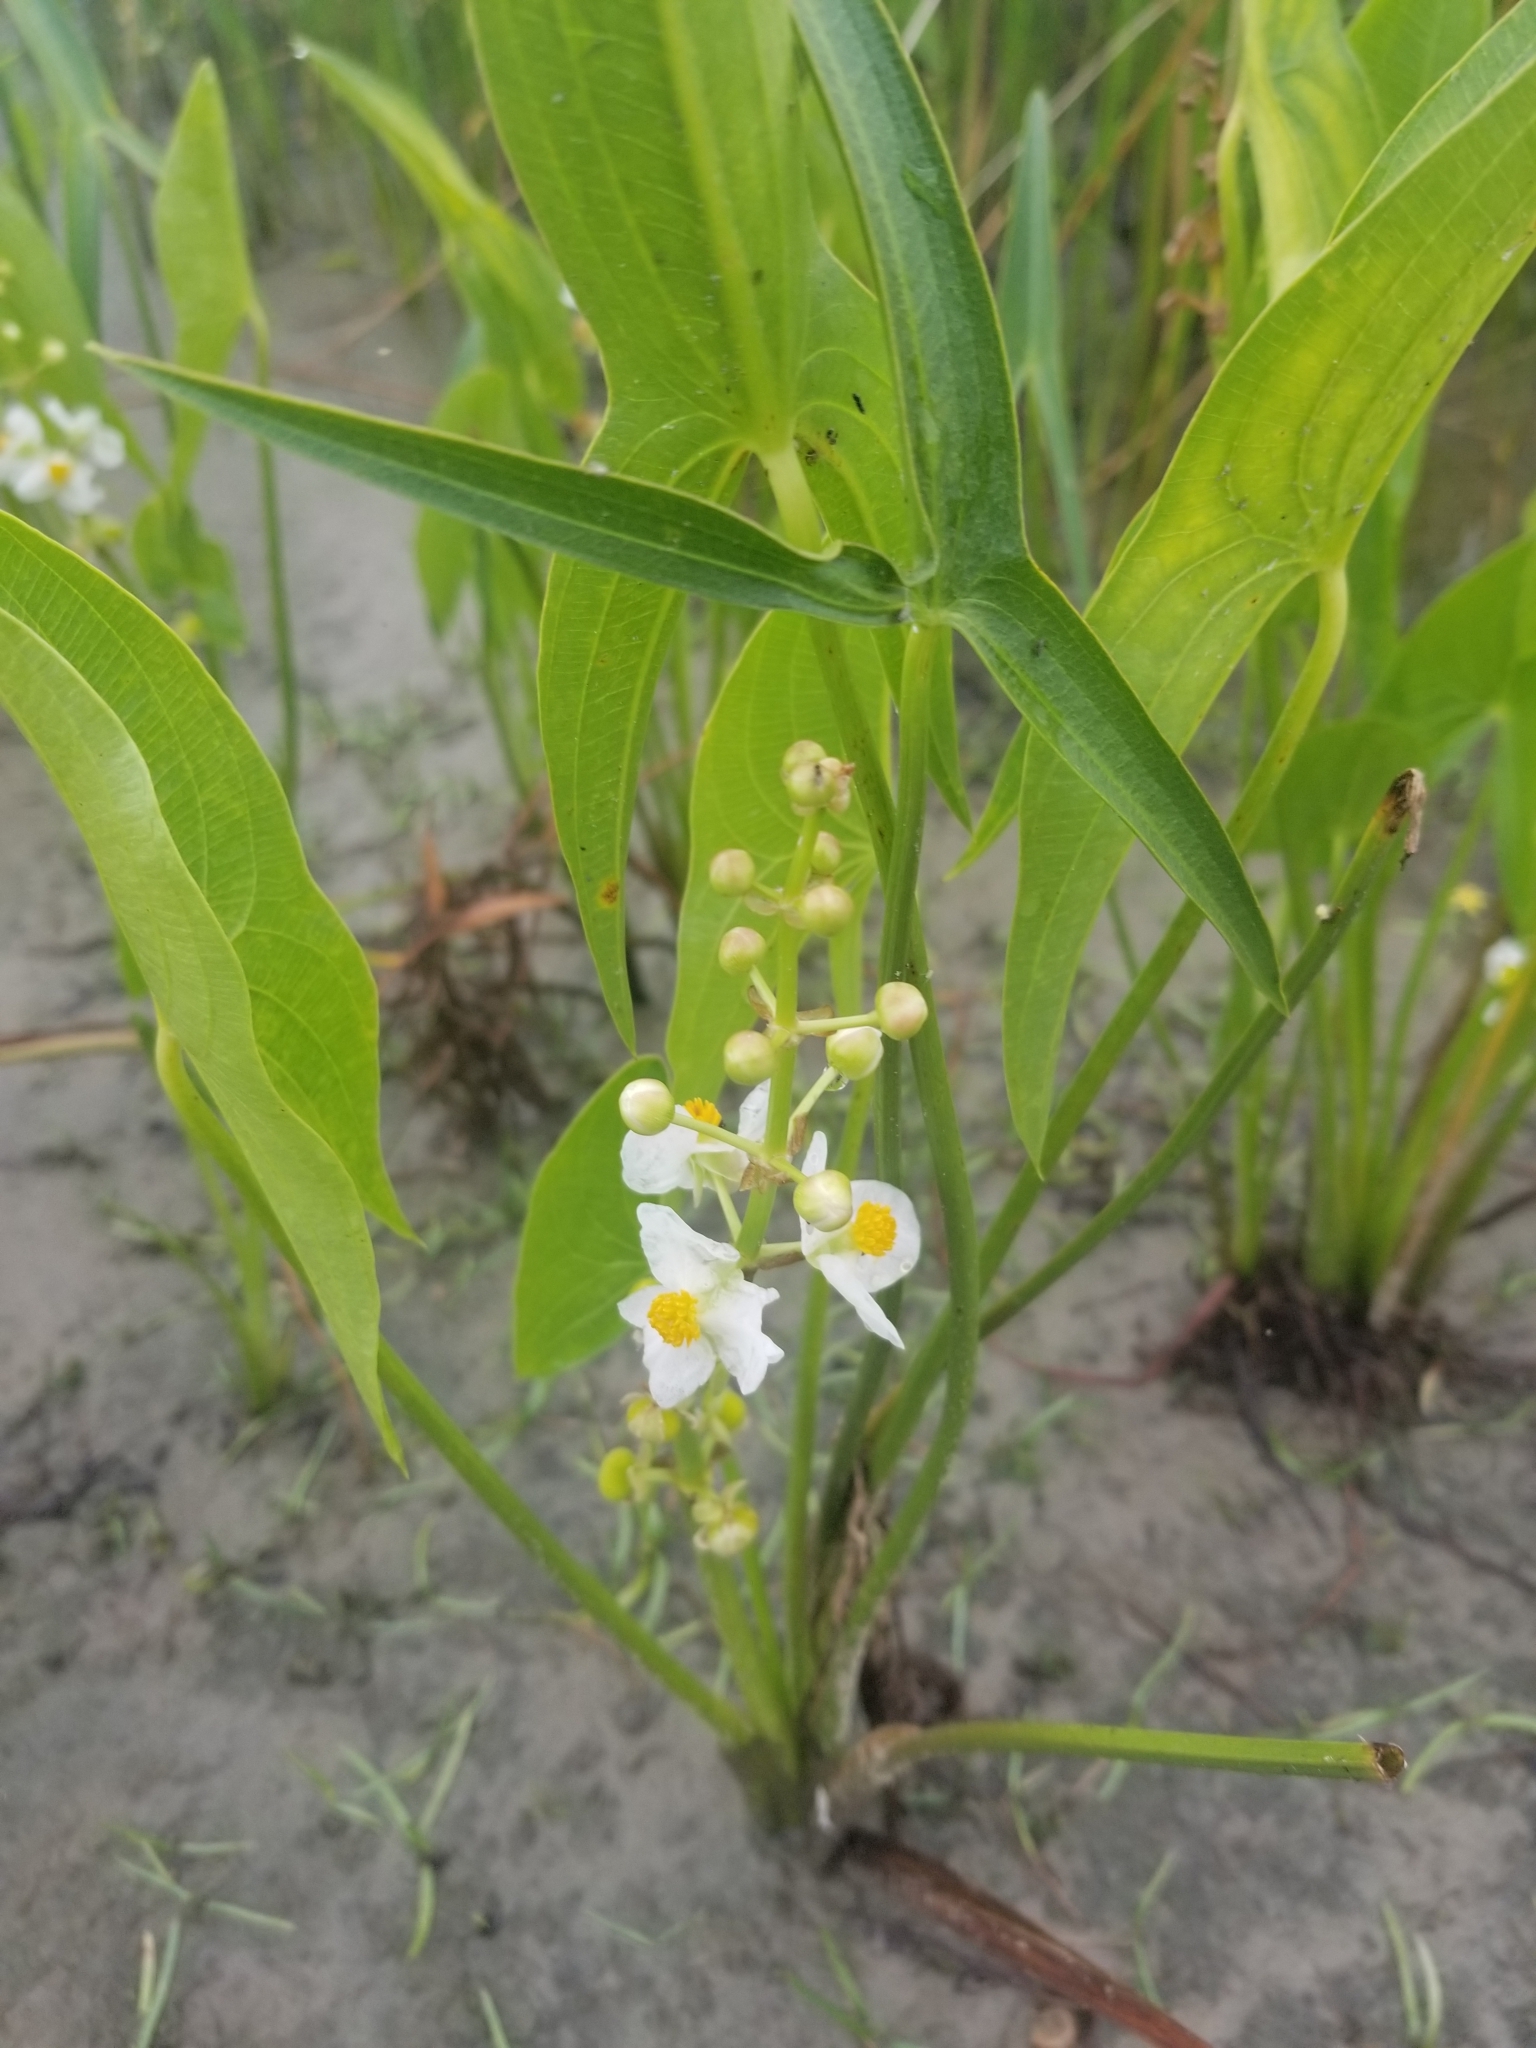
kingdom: Plantae
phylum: Tracheophyta
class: Liliopsida
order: Alismatales
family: Alismataceae
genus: Sagittaria
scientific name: Sagittaria latifolia
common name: Duck-potato
